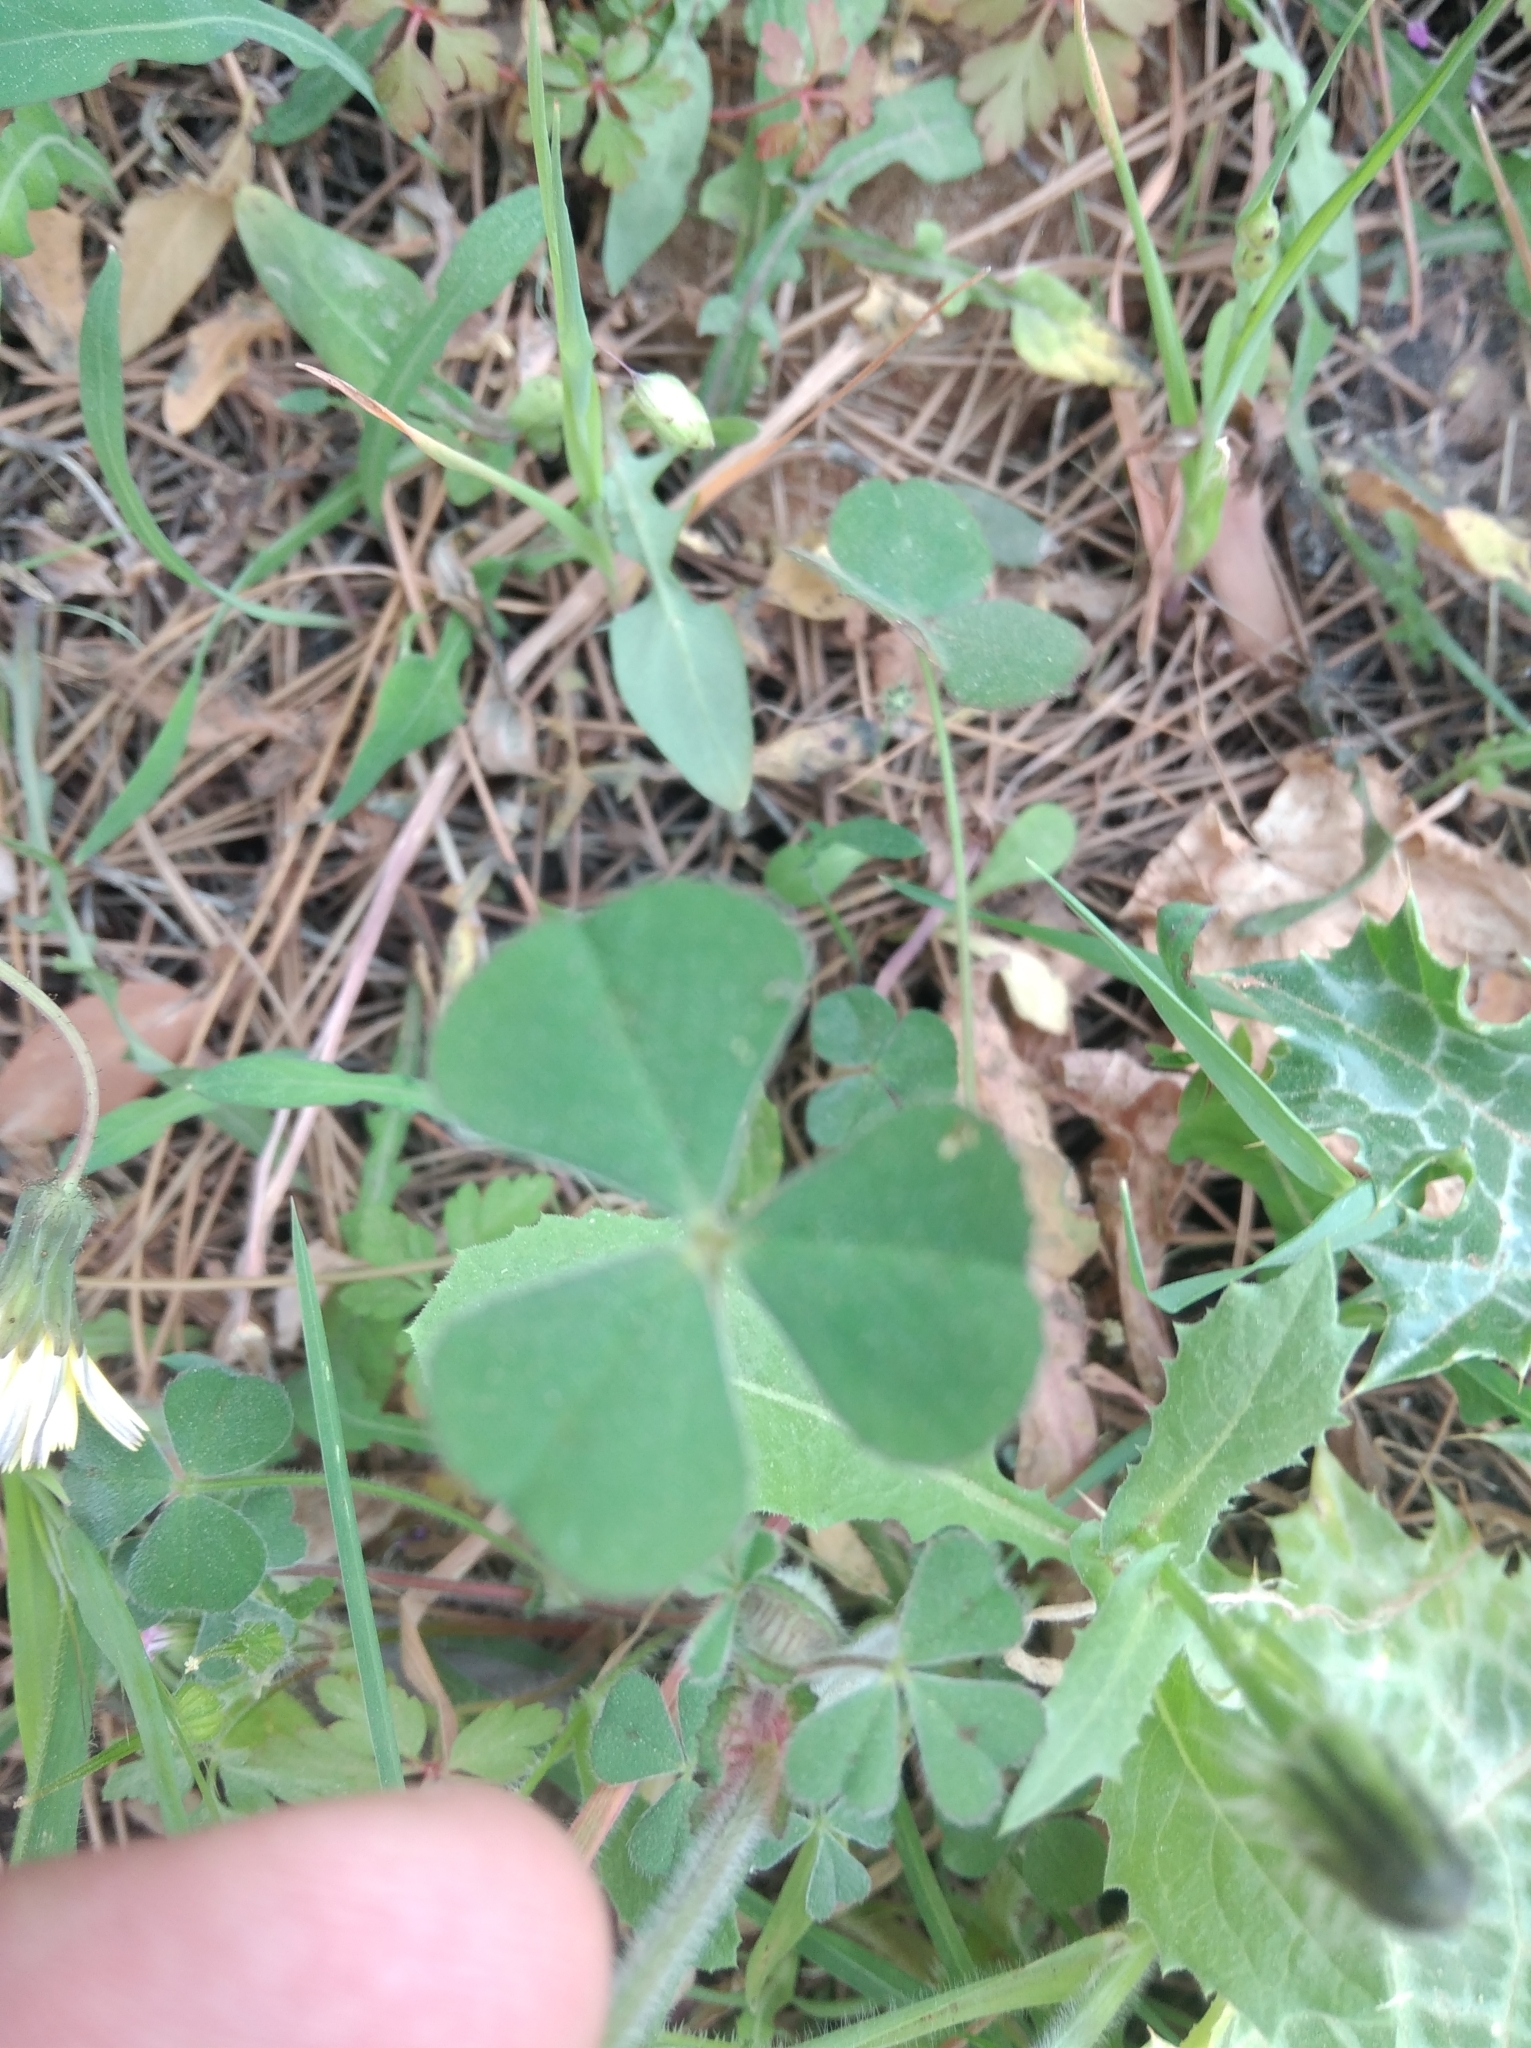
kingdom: Plantae
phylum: Tracheophyta
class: Magnoliopsida
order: Fabales
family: Fabaceae
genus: Trifolium
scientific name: Trifolium stellatum
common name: Starry clover
